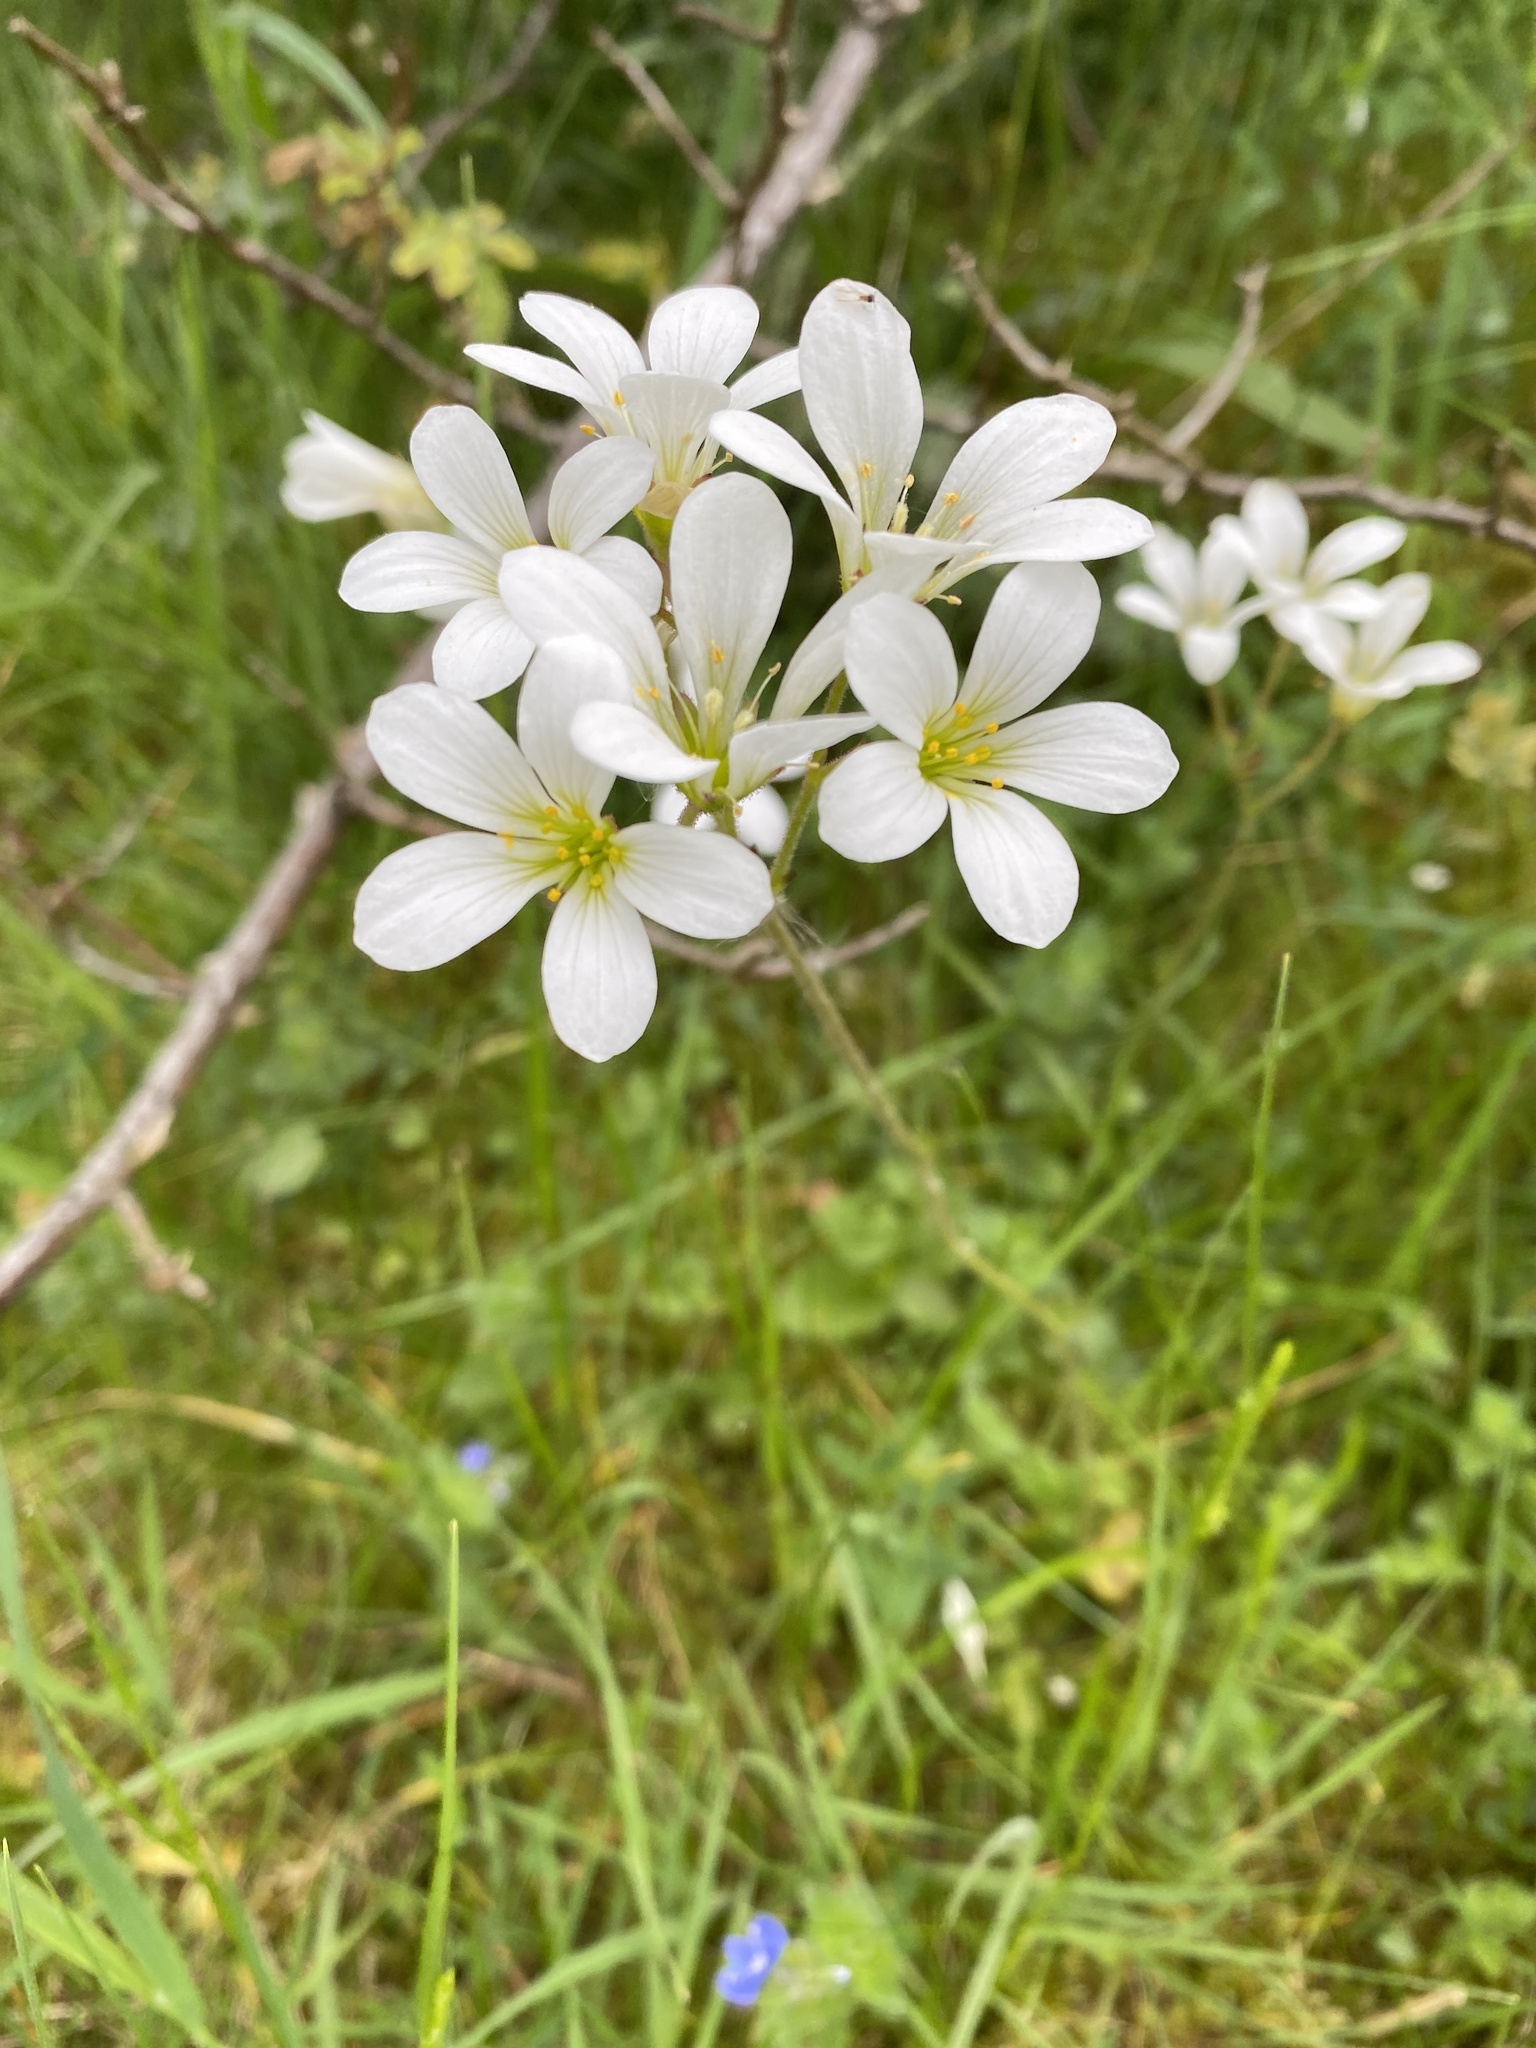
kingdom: Plantae
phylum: Tracheophyta
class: Magnoliopsida
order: Saxifragales
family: Saxifragaceae
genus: Saxifraga
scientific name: Saxifraga granulata
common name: Meadow saxifrage
